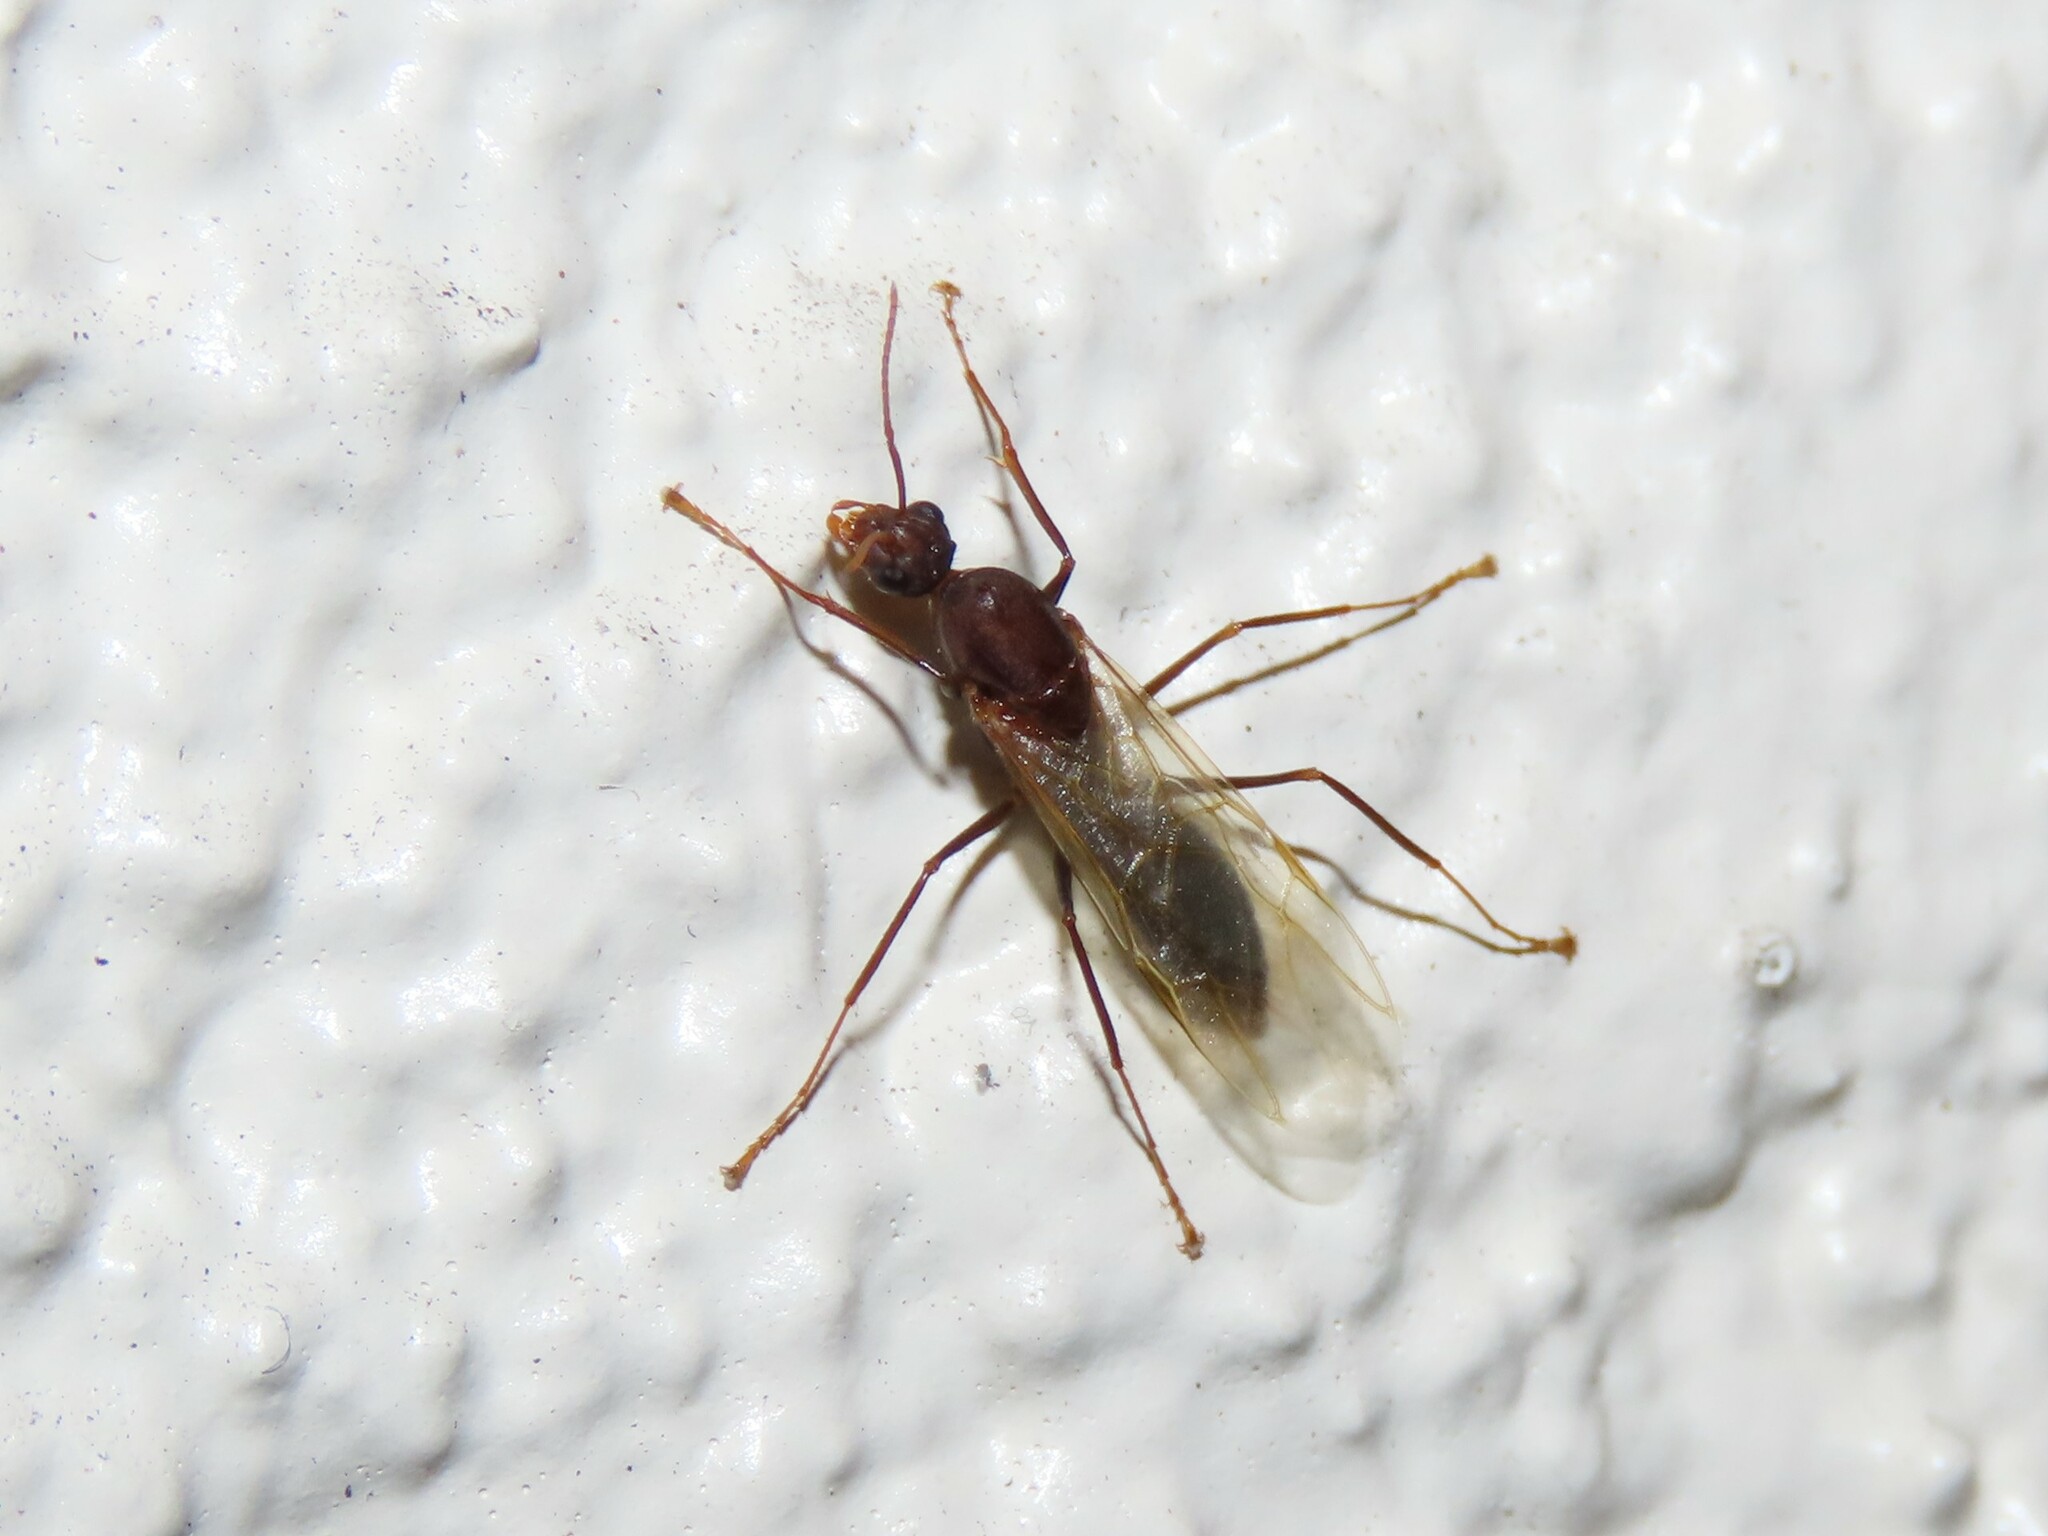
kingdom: Animalia
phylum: Arthropoda
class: Insecta
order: Hymenoptera
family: Formicidae
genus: Camponotus
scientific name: Camponotus floridanus
